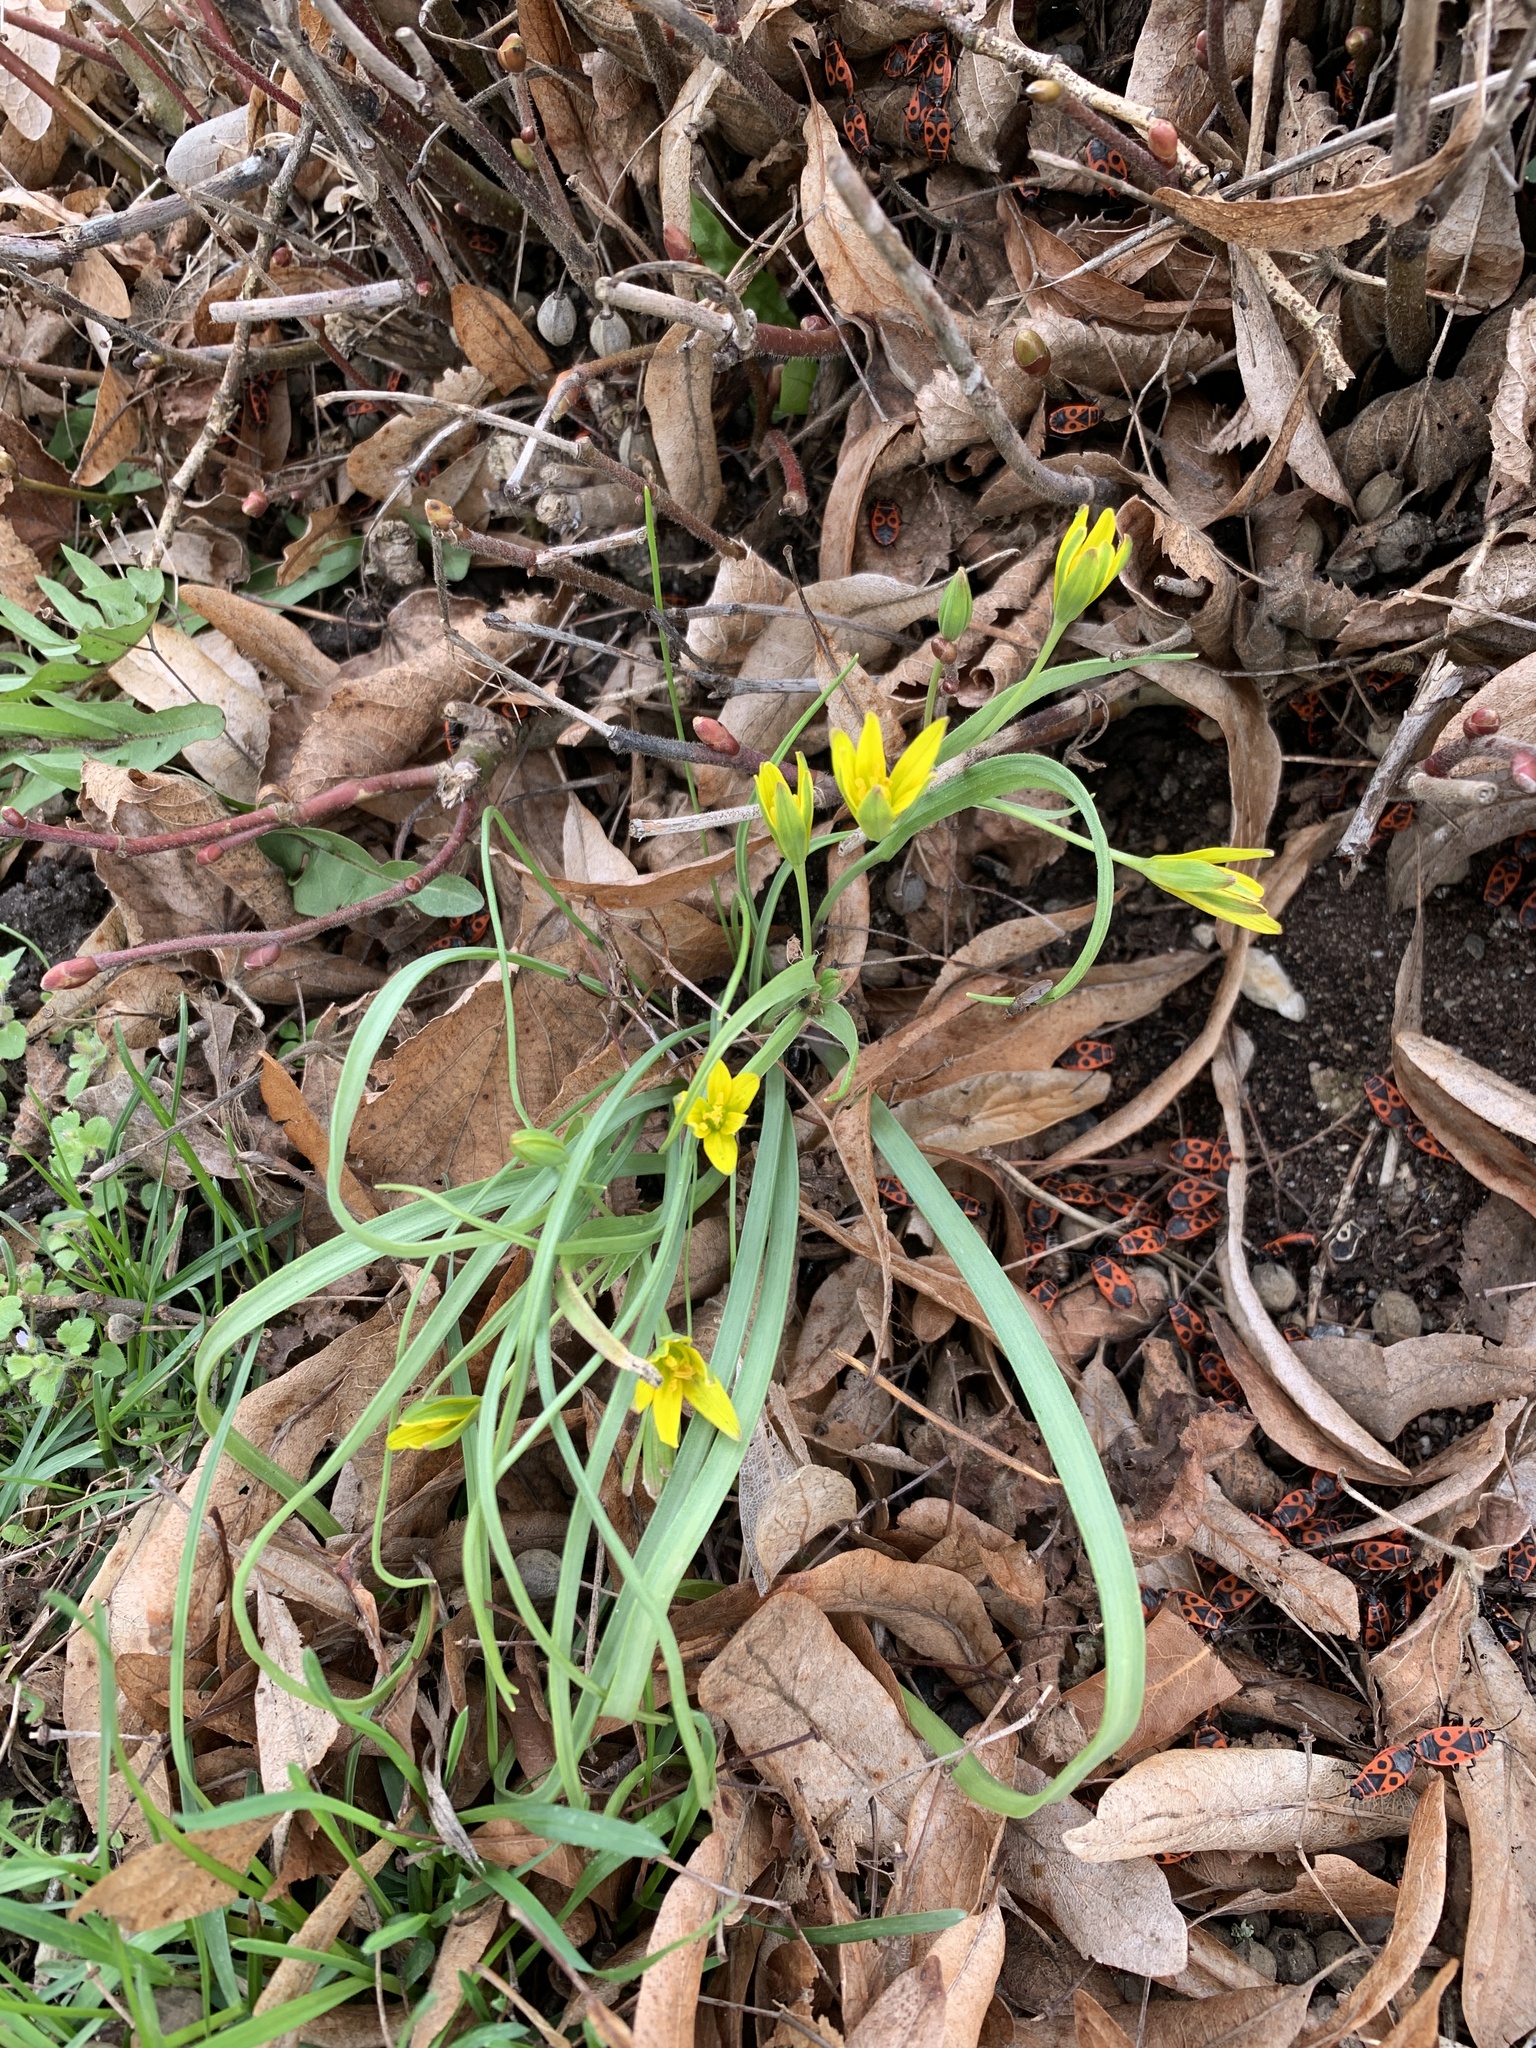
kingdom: Plantae
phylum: Tracheophyta
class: Liliopsida
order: Liliales
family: Liliaceae
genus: Gagea
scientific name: Gagea pratensis
